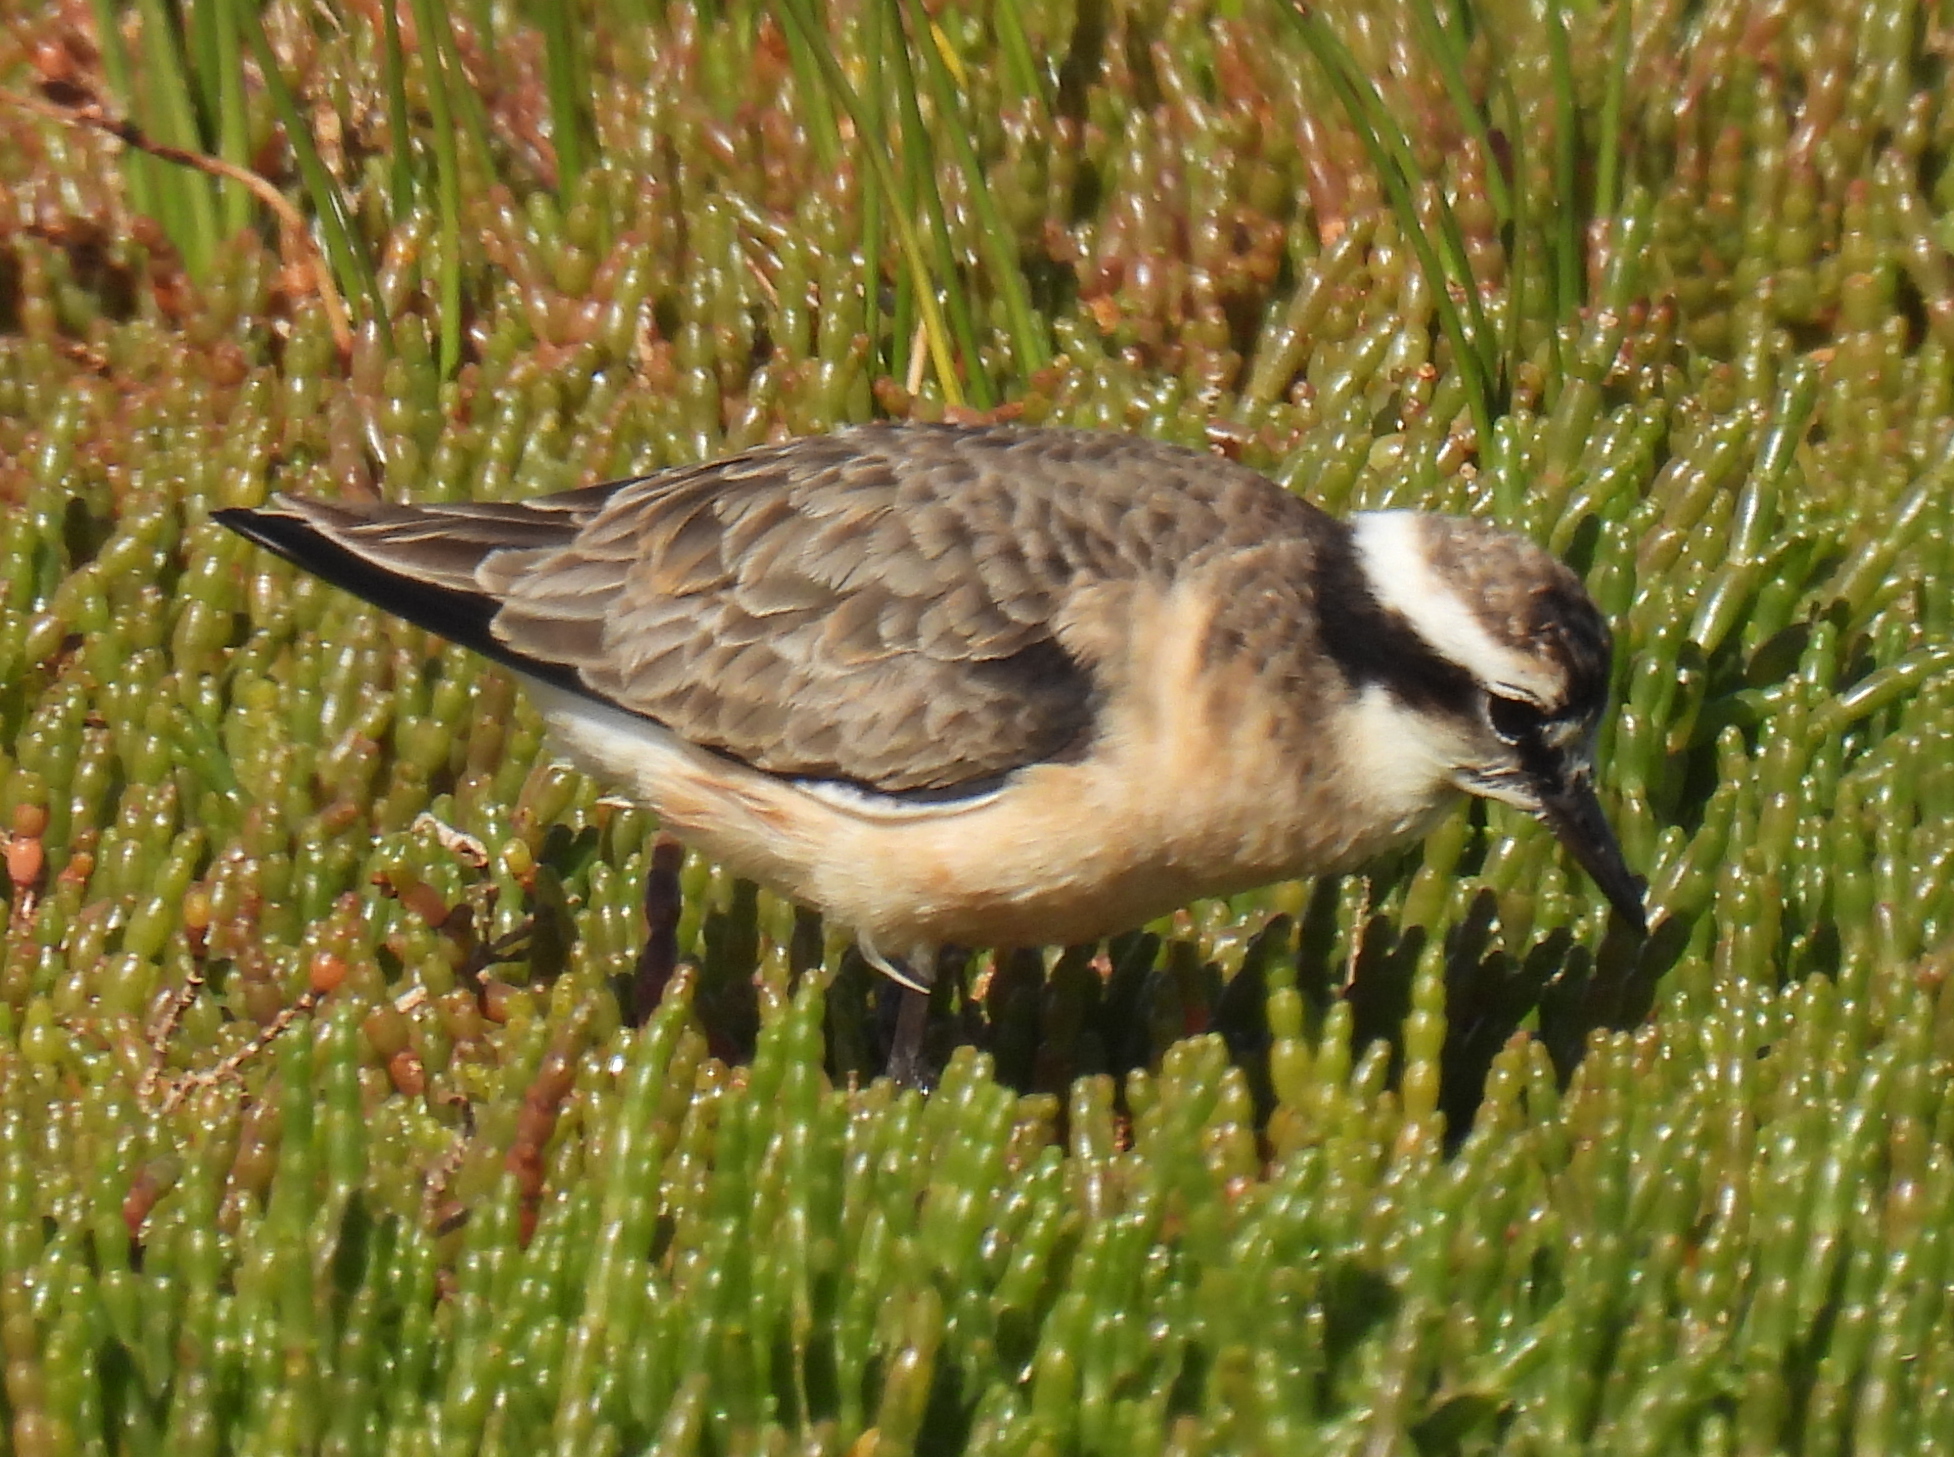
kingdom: Animalia
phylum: Chordata
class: Aves
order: Charadriiformes
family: Charadriidae
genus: Anarhynchus
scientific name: Anarhynchus
